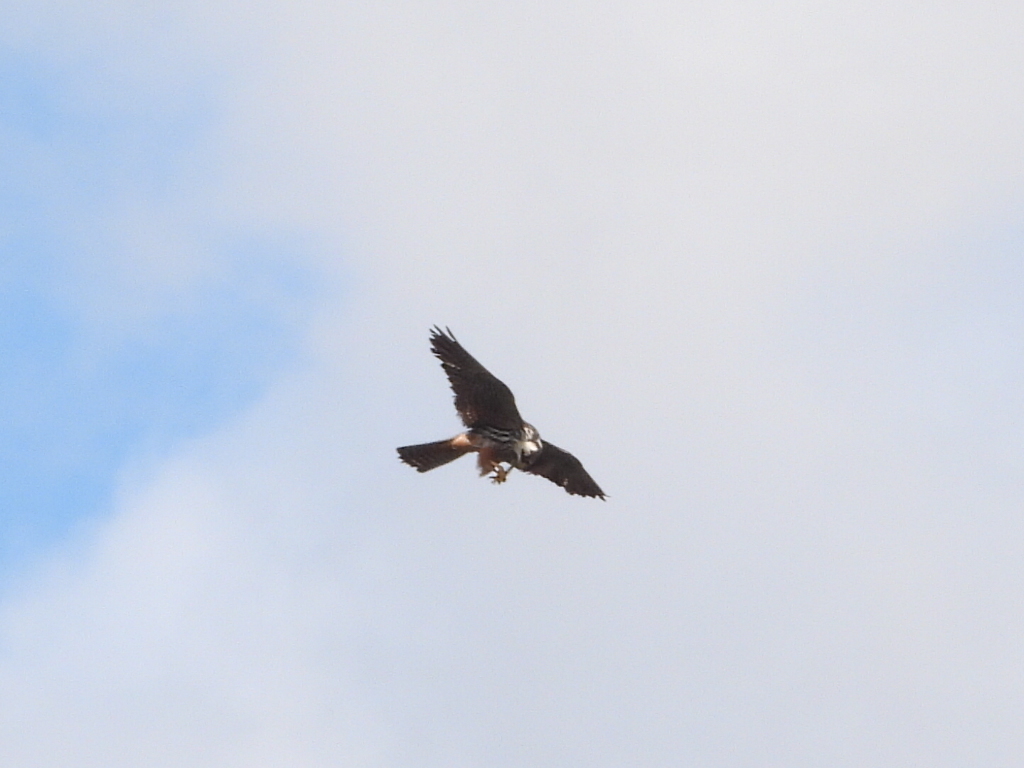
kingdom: Animalia
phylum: Chordata
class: Aves
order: Falconiformes
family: Falconidae
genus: Falco
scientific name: Falco subbuteo
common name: Eurasian hobby
